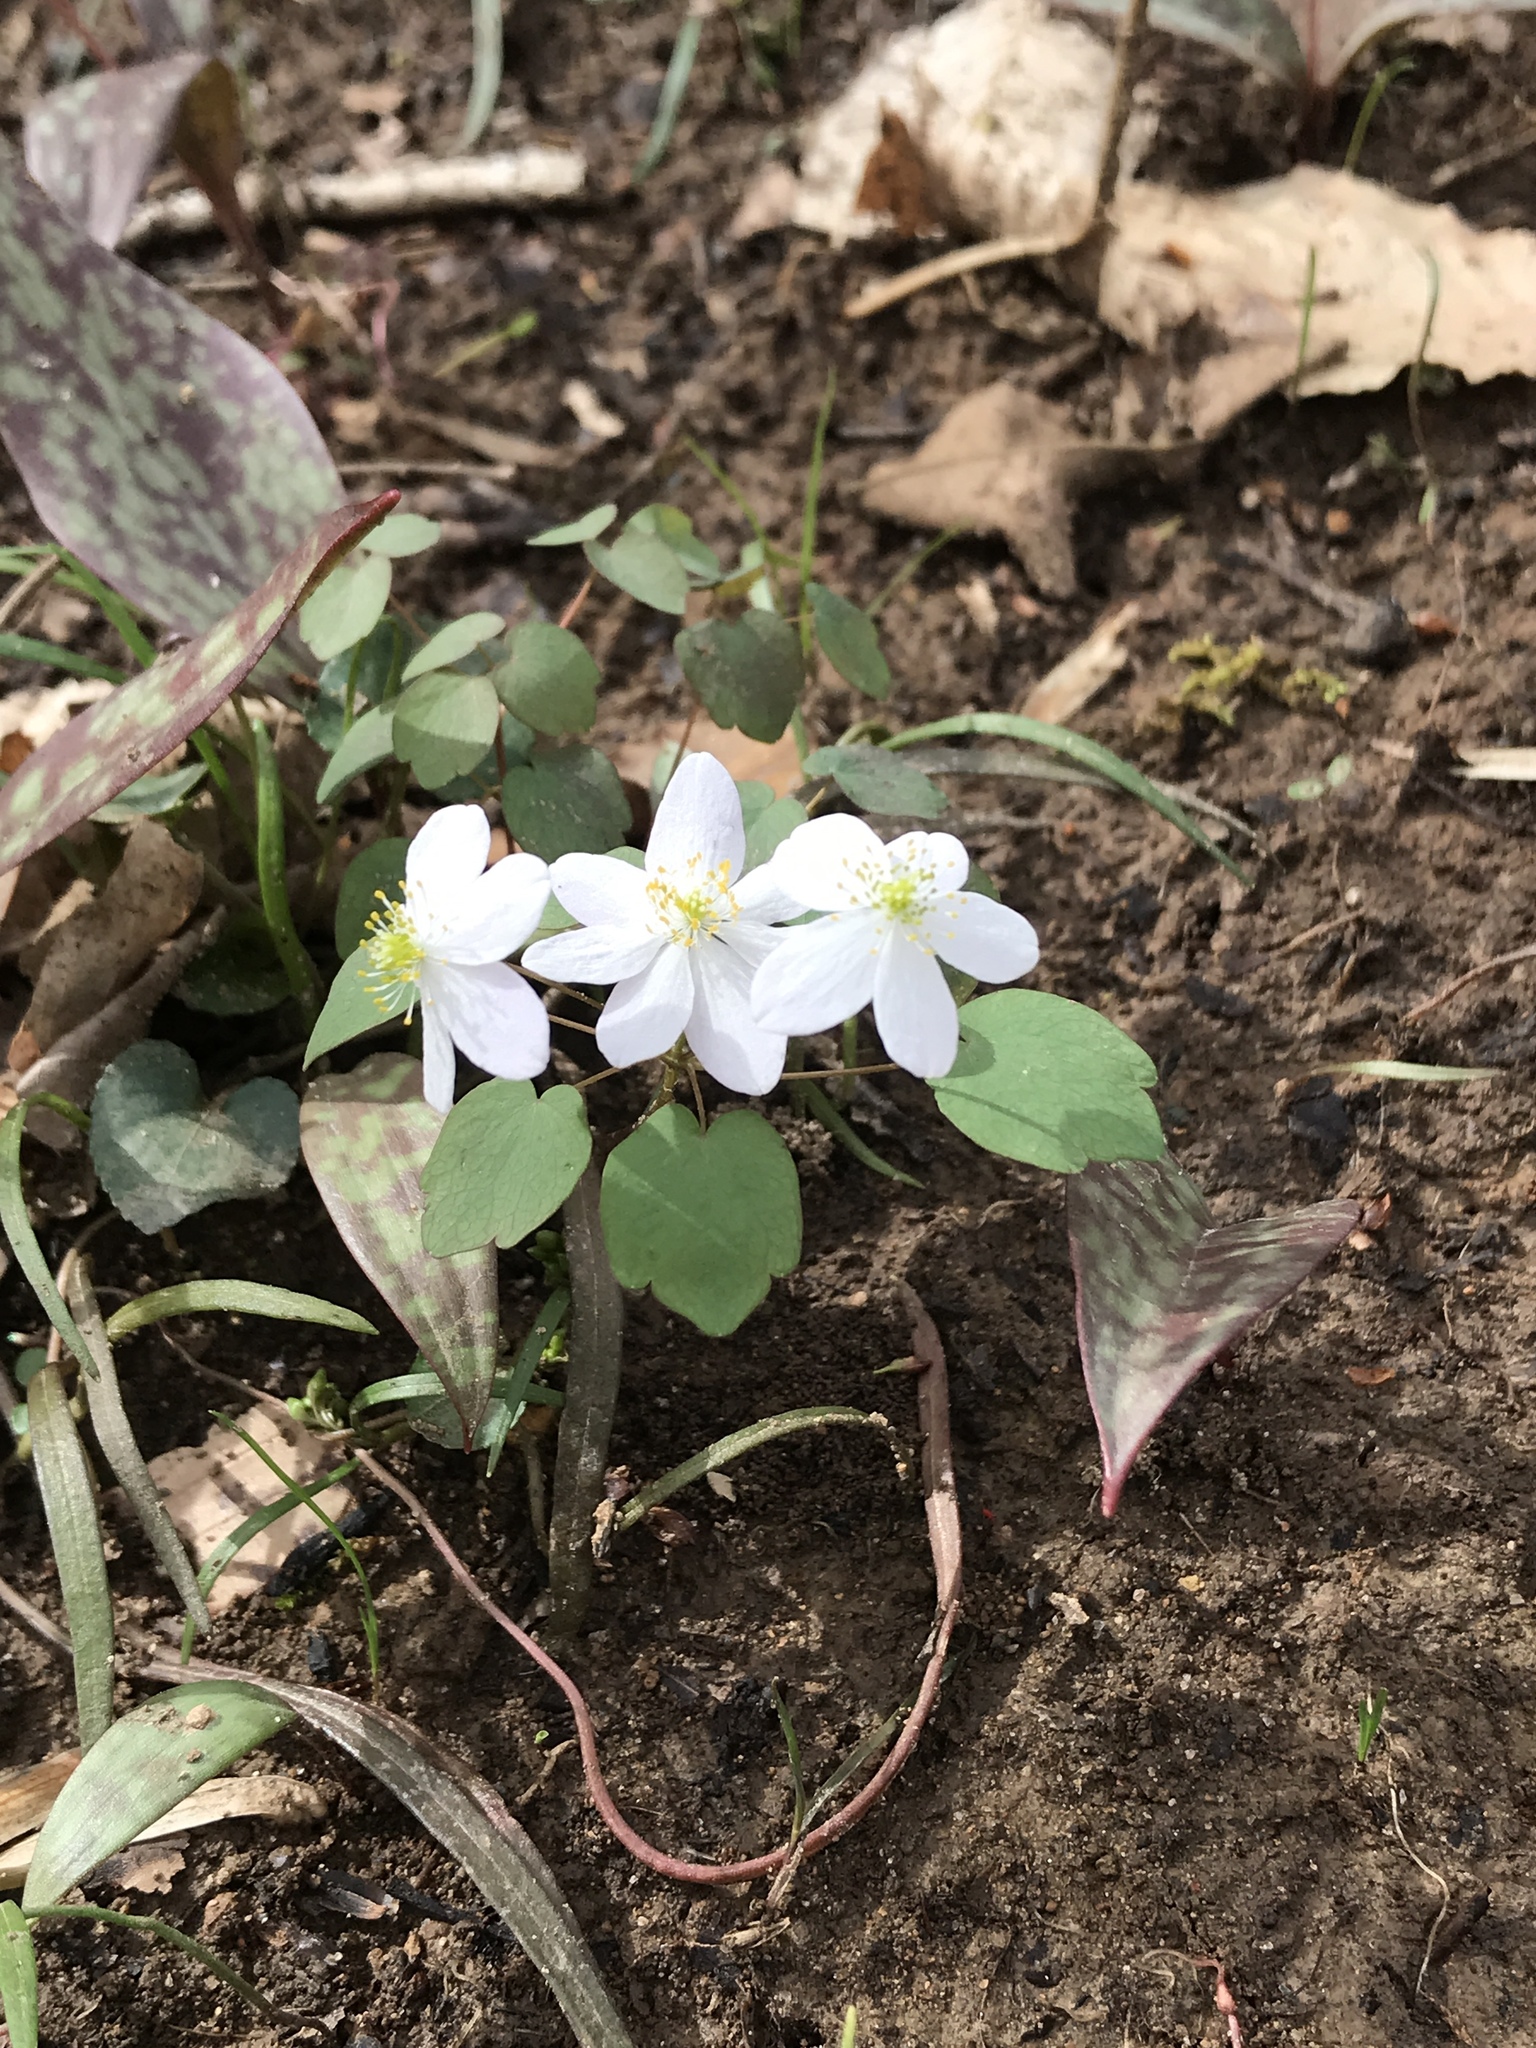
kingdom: Plantae
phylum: Tracheophyta
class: Magnoliopsida
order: Ranunculales
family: Ranunculaceae
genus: Thalictrum
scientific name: Thalictrum thalictroides
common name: Rue-anemone
